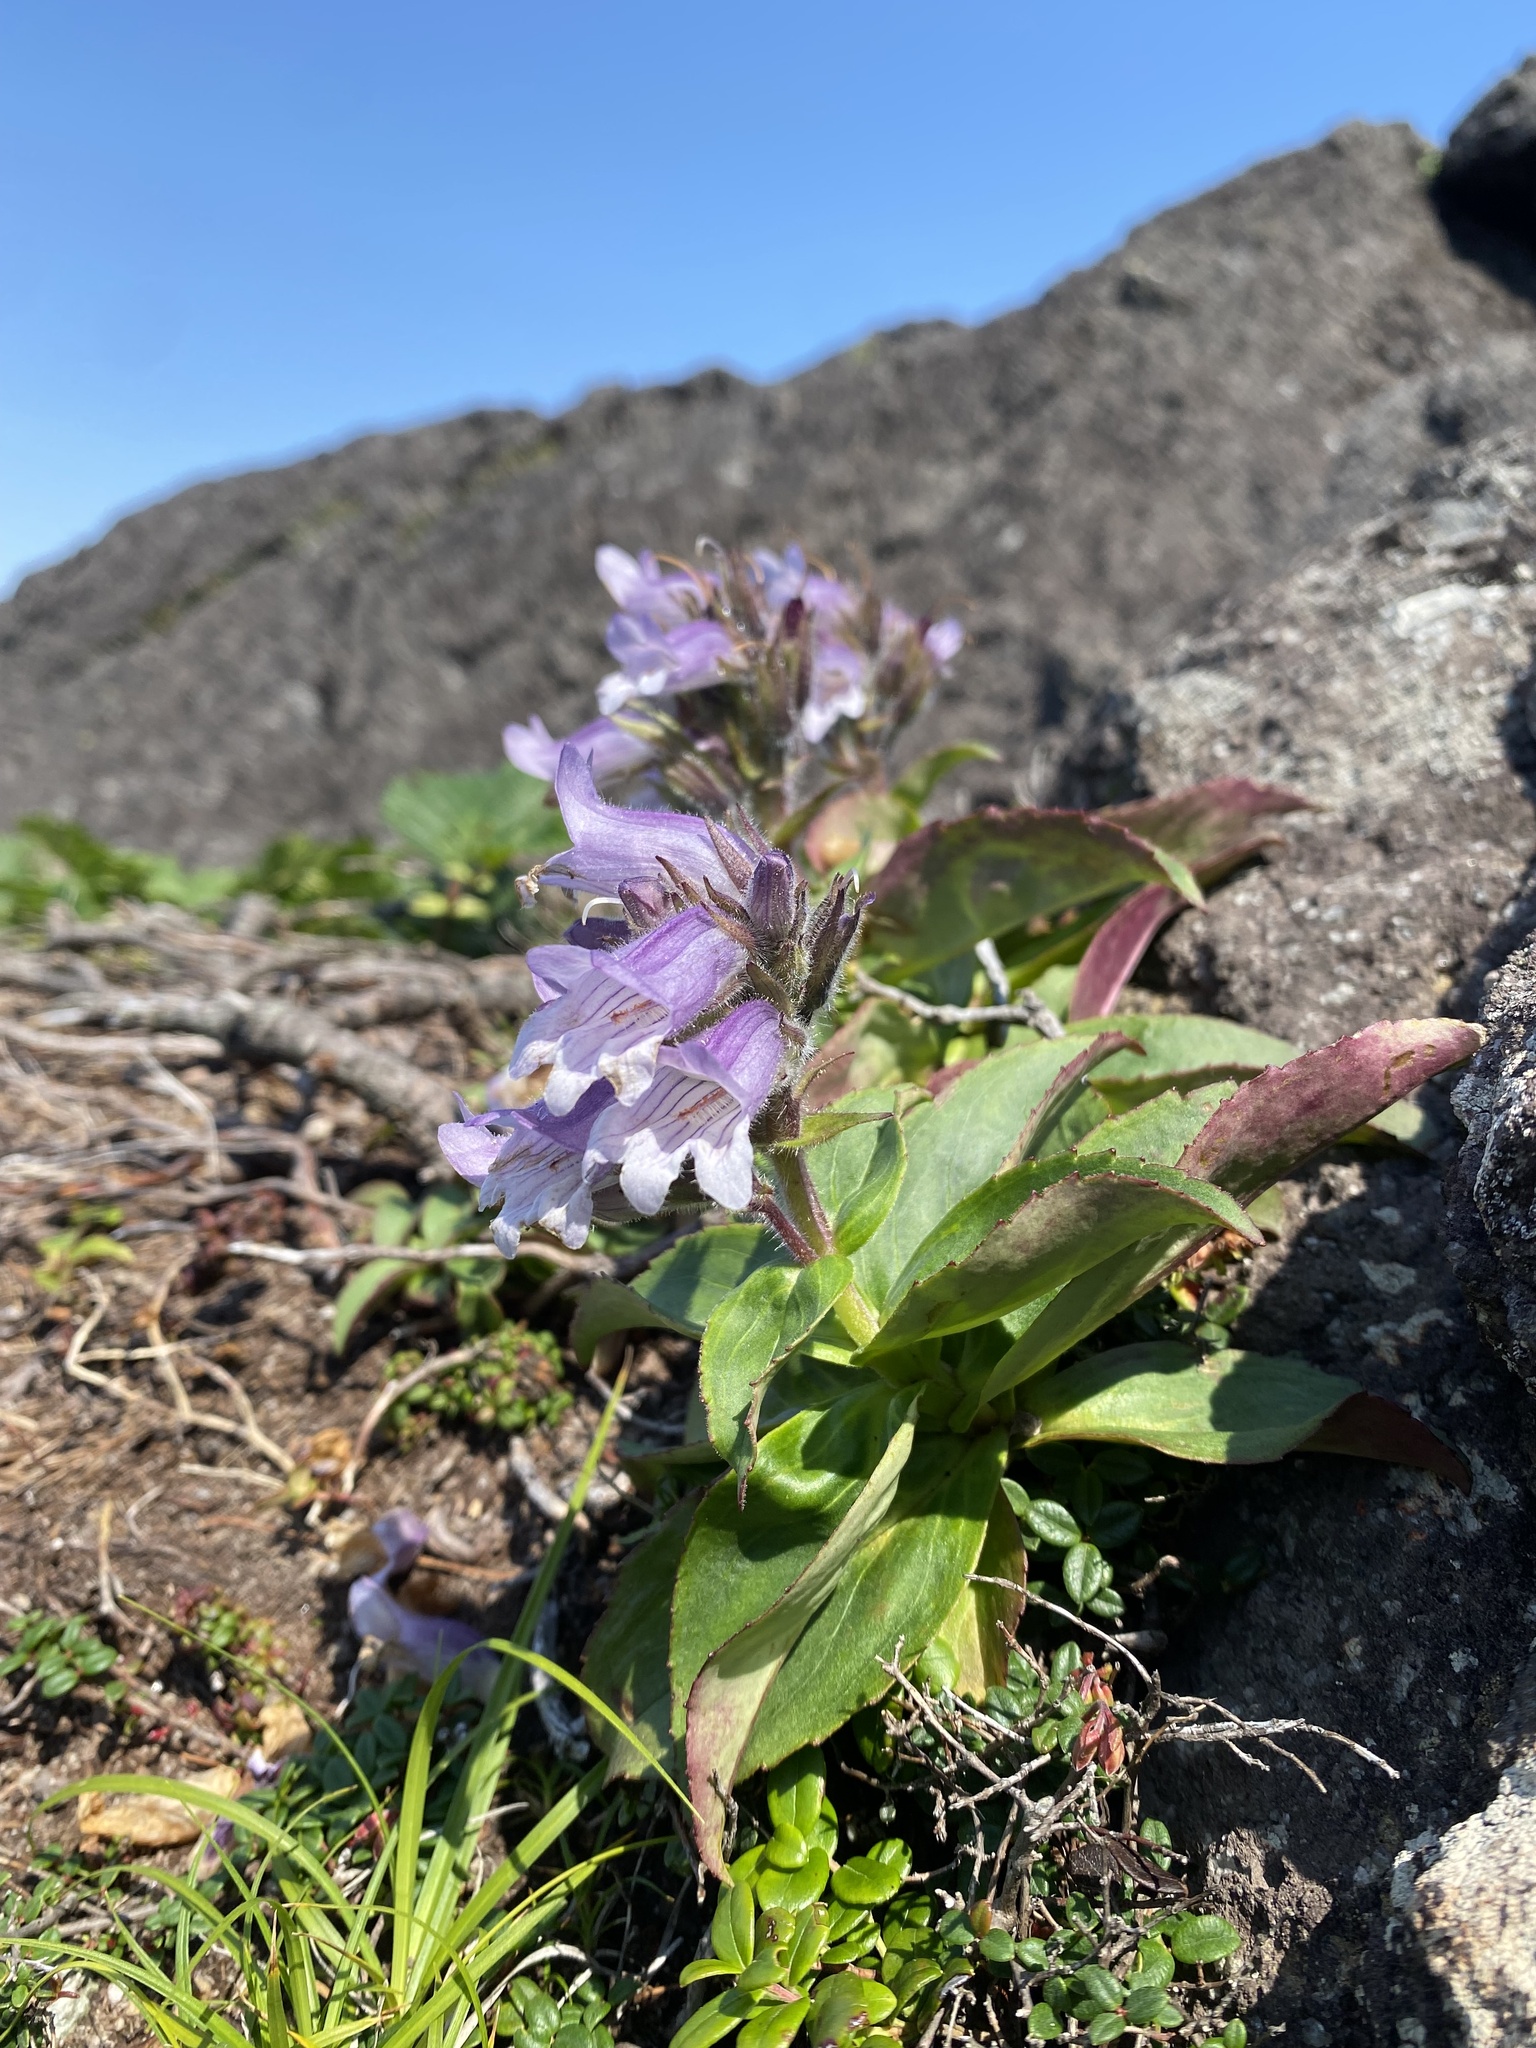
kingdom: Plantae
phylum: Tracheophyta
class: Magnoliopsida
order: Lamiales
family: Plantaginaceae
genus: Pennellianthus
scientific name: Pennellianthus frutescens
